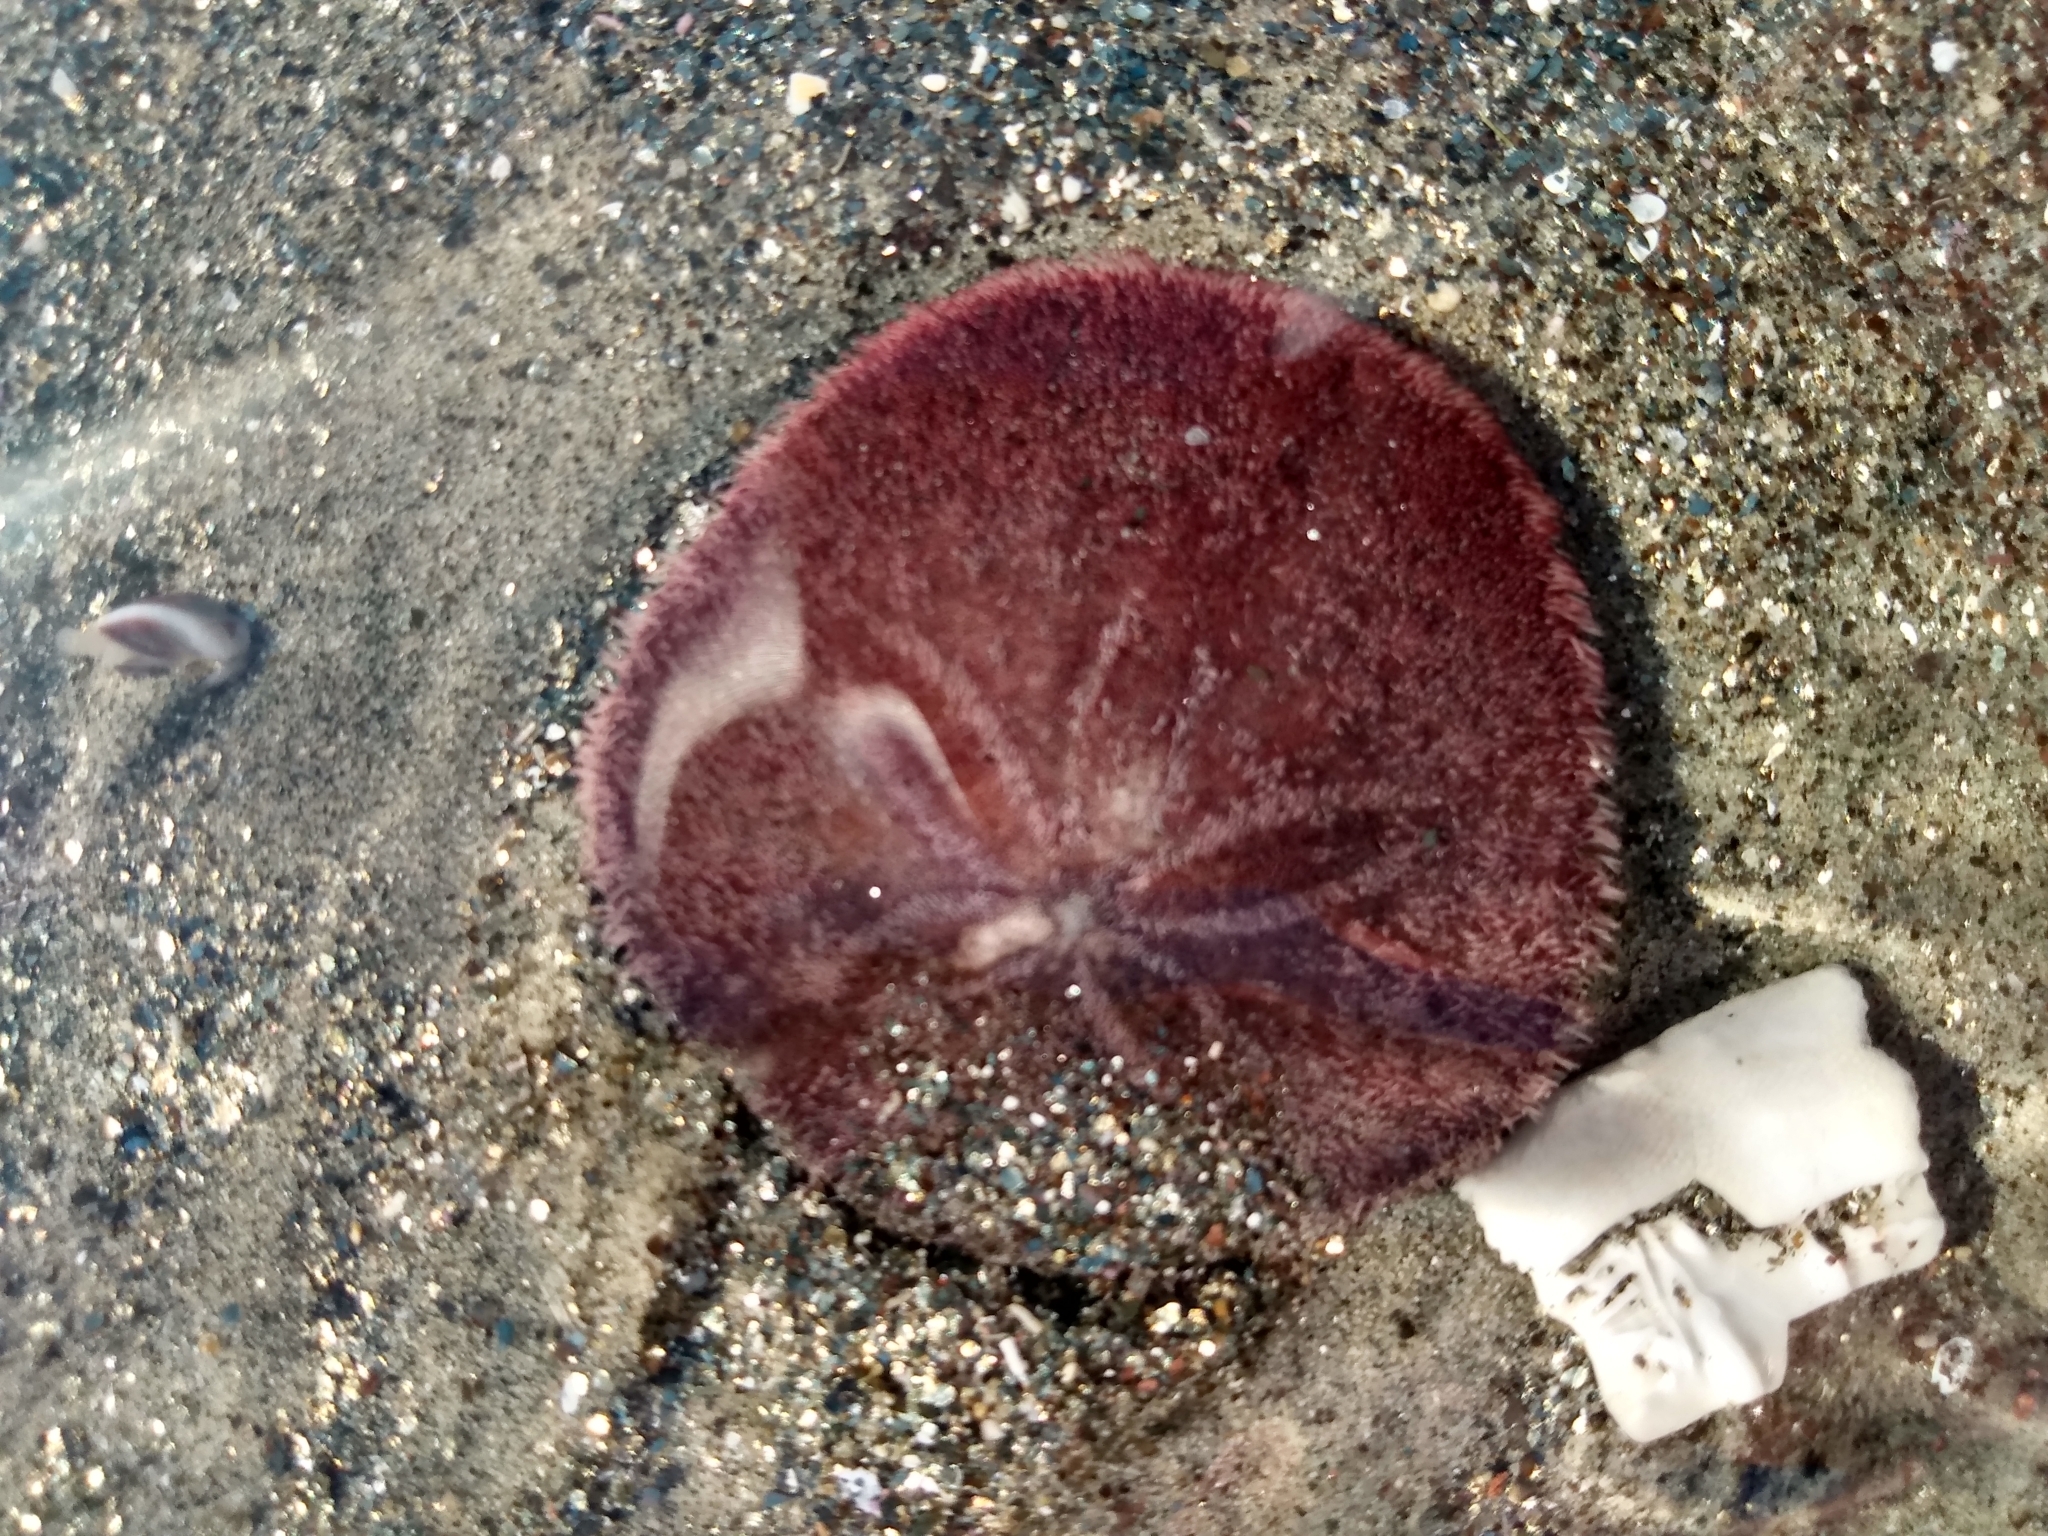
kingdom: Animalia
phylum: Echinodermata
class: Echinoidea
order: Echinolampadacea
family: Dendrasteridae
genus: Dendraster
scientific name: Dendraster excentricus
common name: Eccentric sand dollar sea urchin
